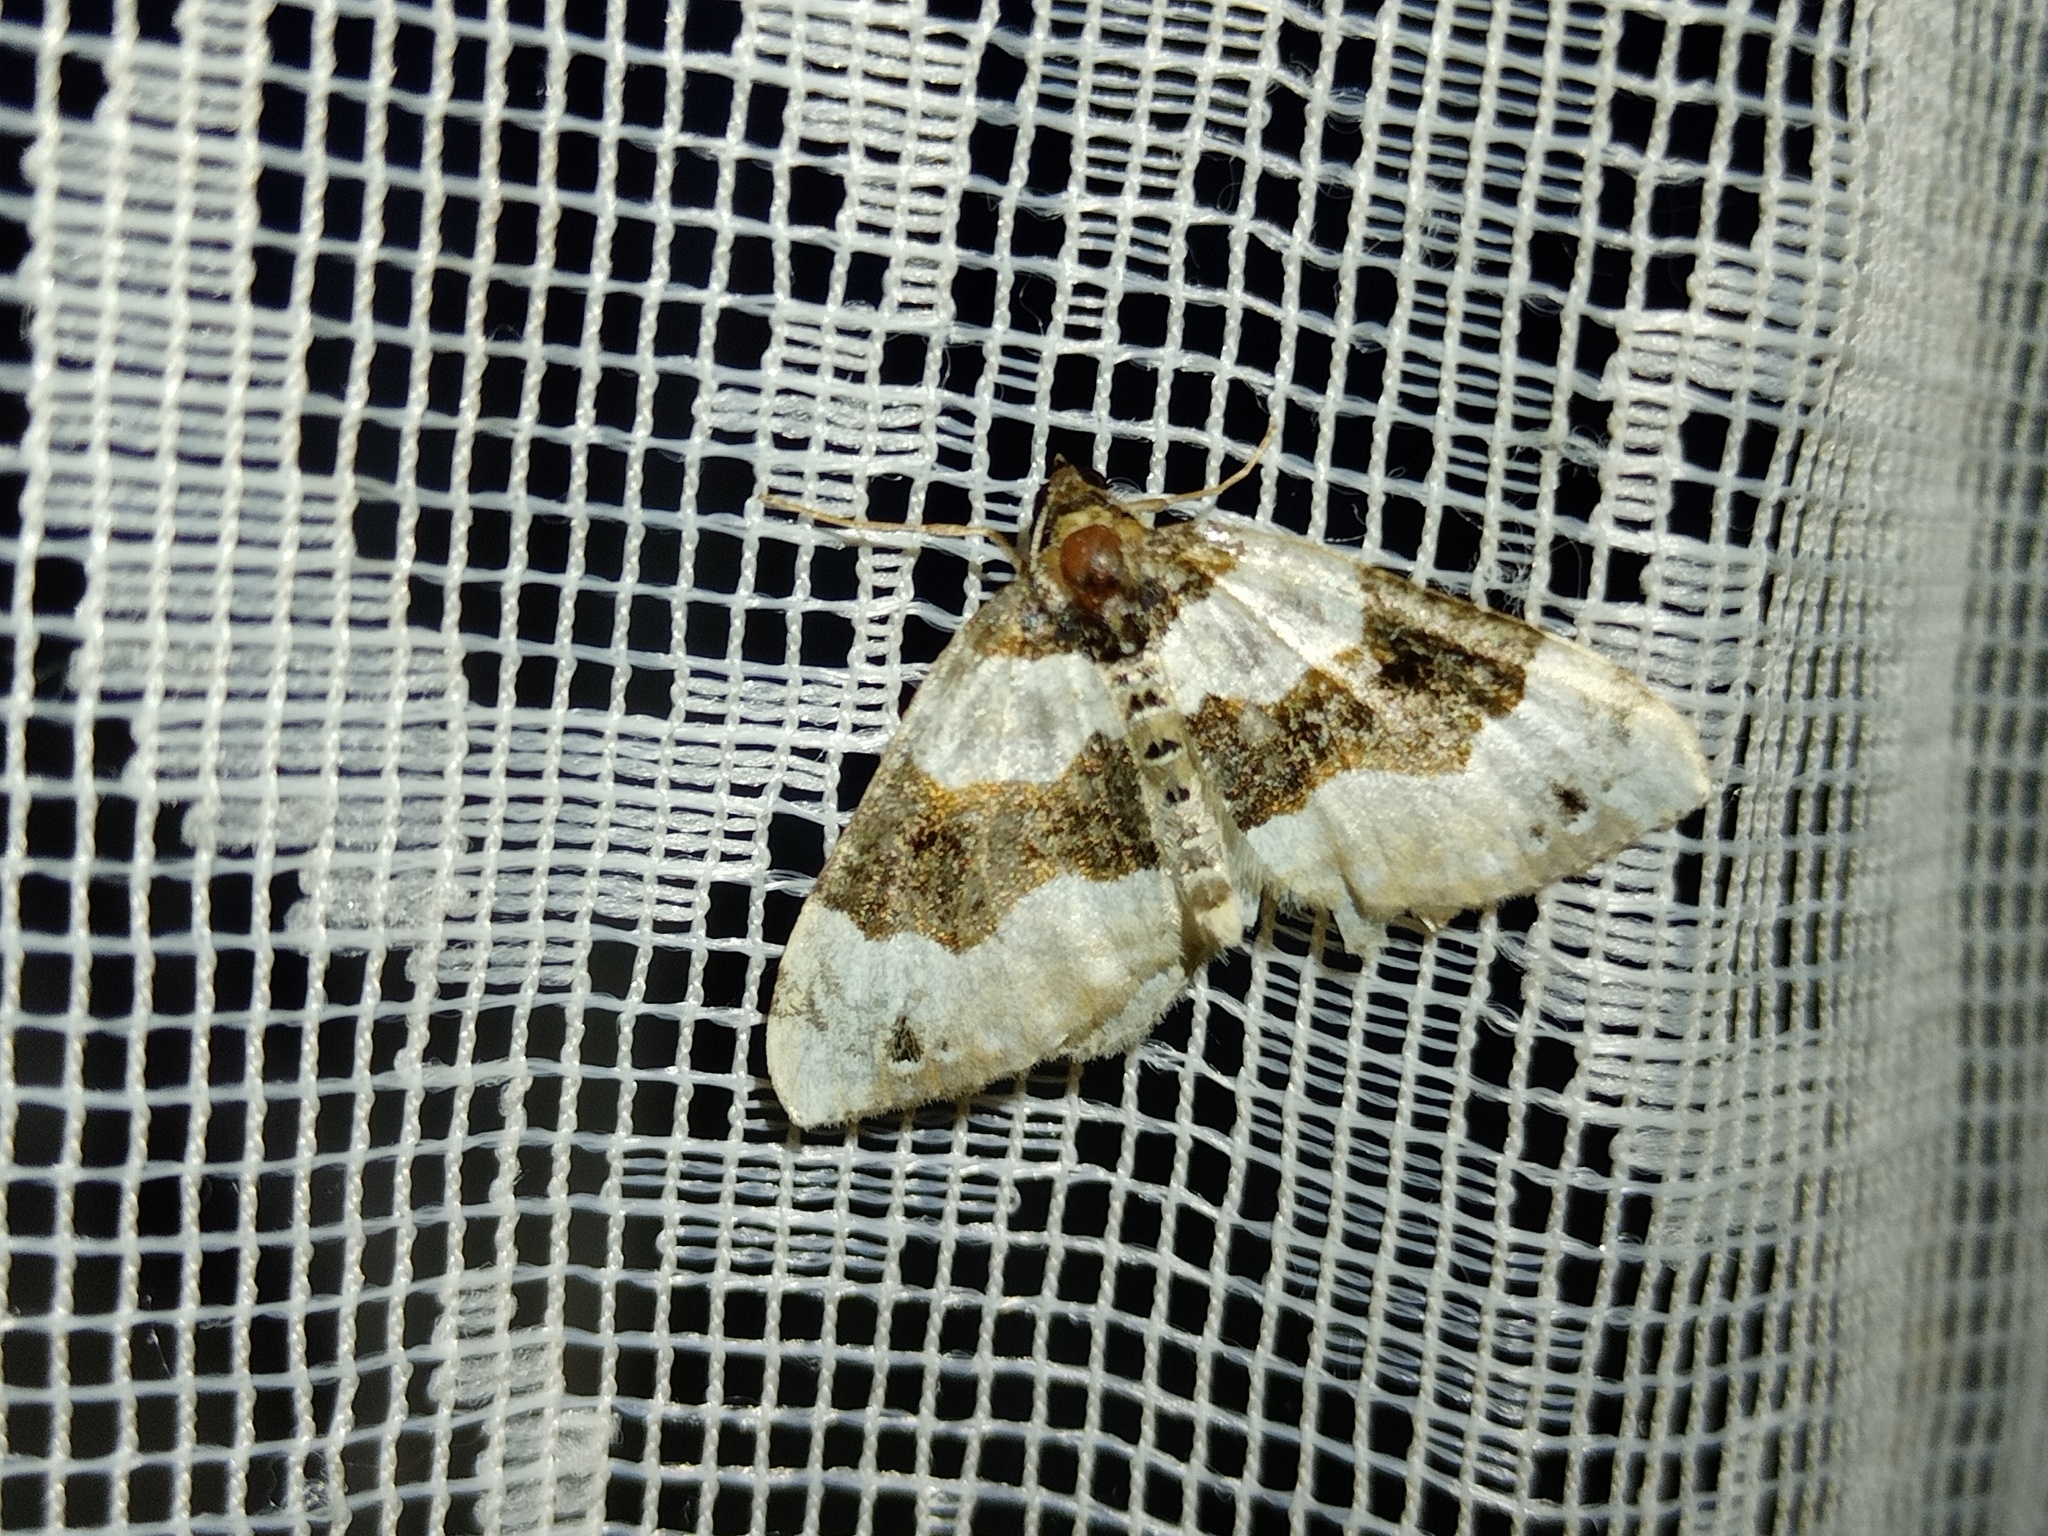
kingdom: Animalia
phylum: Arthropoda
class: Insecta
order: Lepidoptera
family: Geometridae
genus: Cosmorhoe
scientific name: Cosmorhoe ocellata
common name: Purple bar
